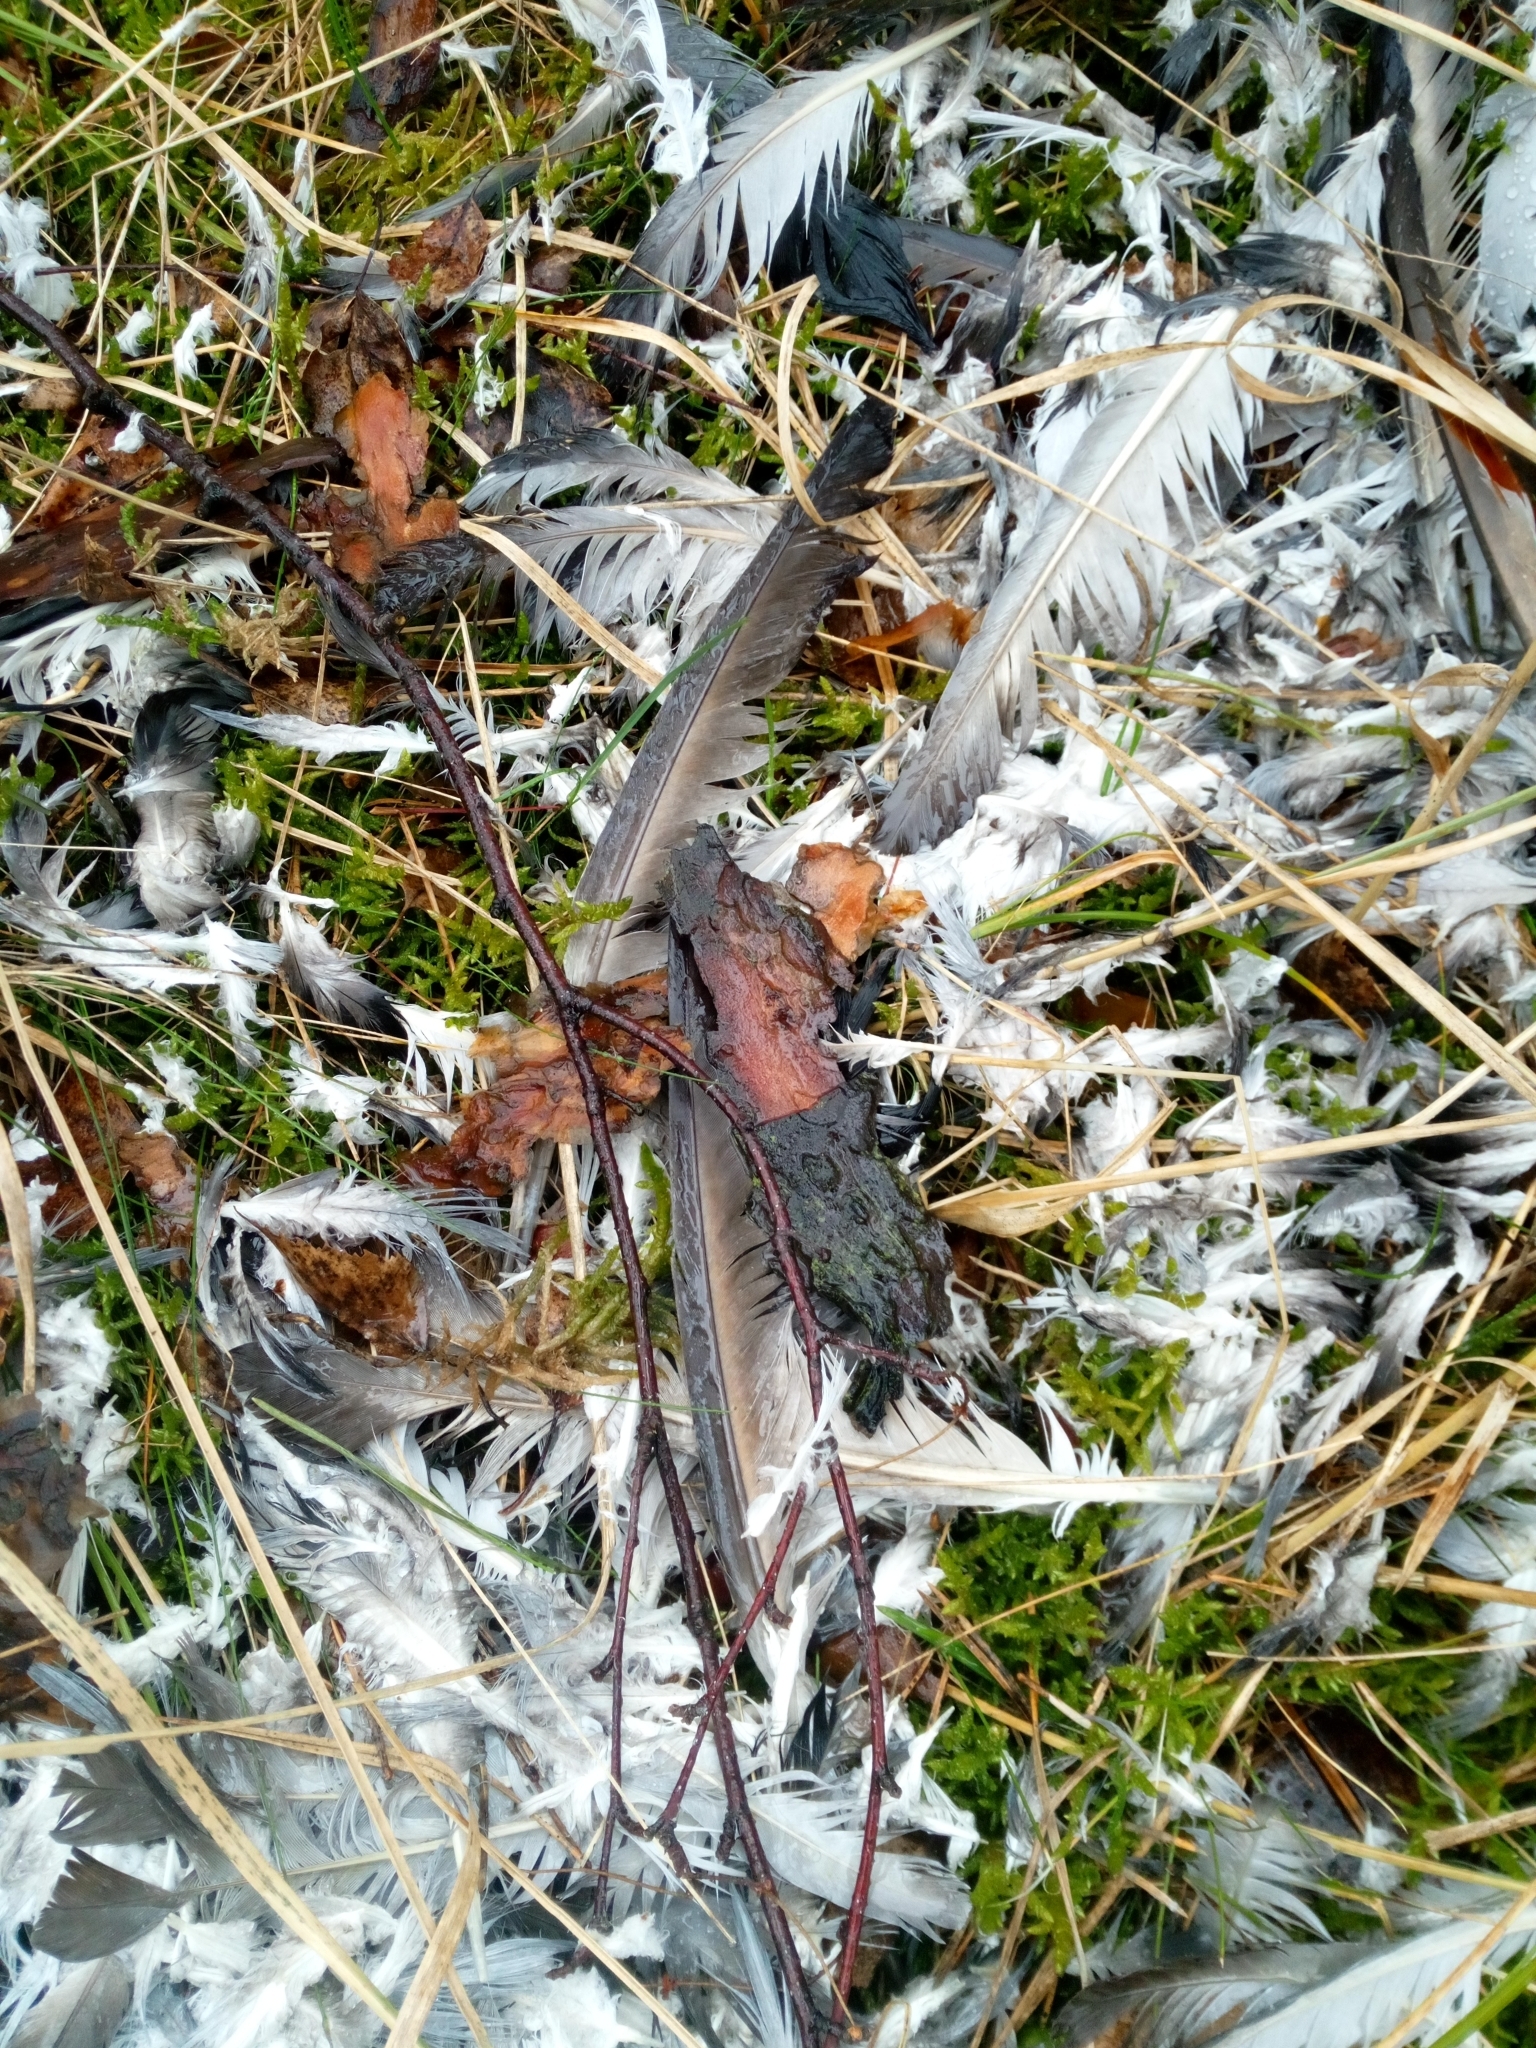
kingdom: Animalia
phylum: Chordata
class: Aves
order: Columbiformes
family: Columbidae
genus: Columba
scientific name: Columba livia
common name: Rock pigeon
